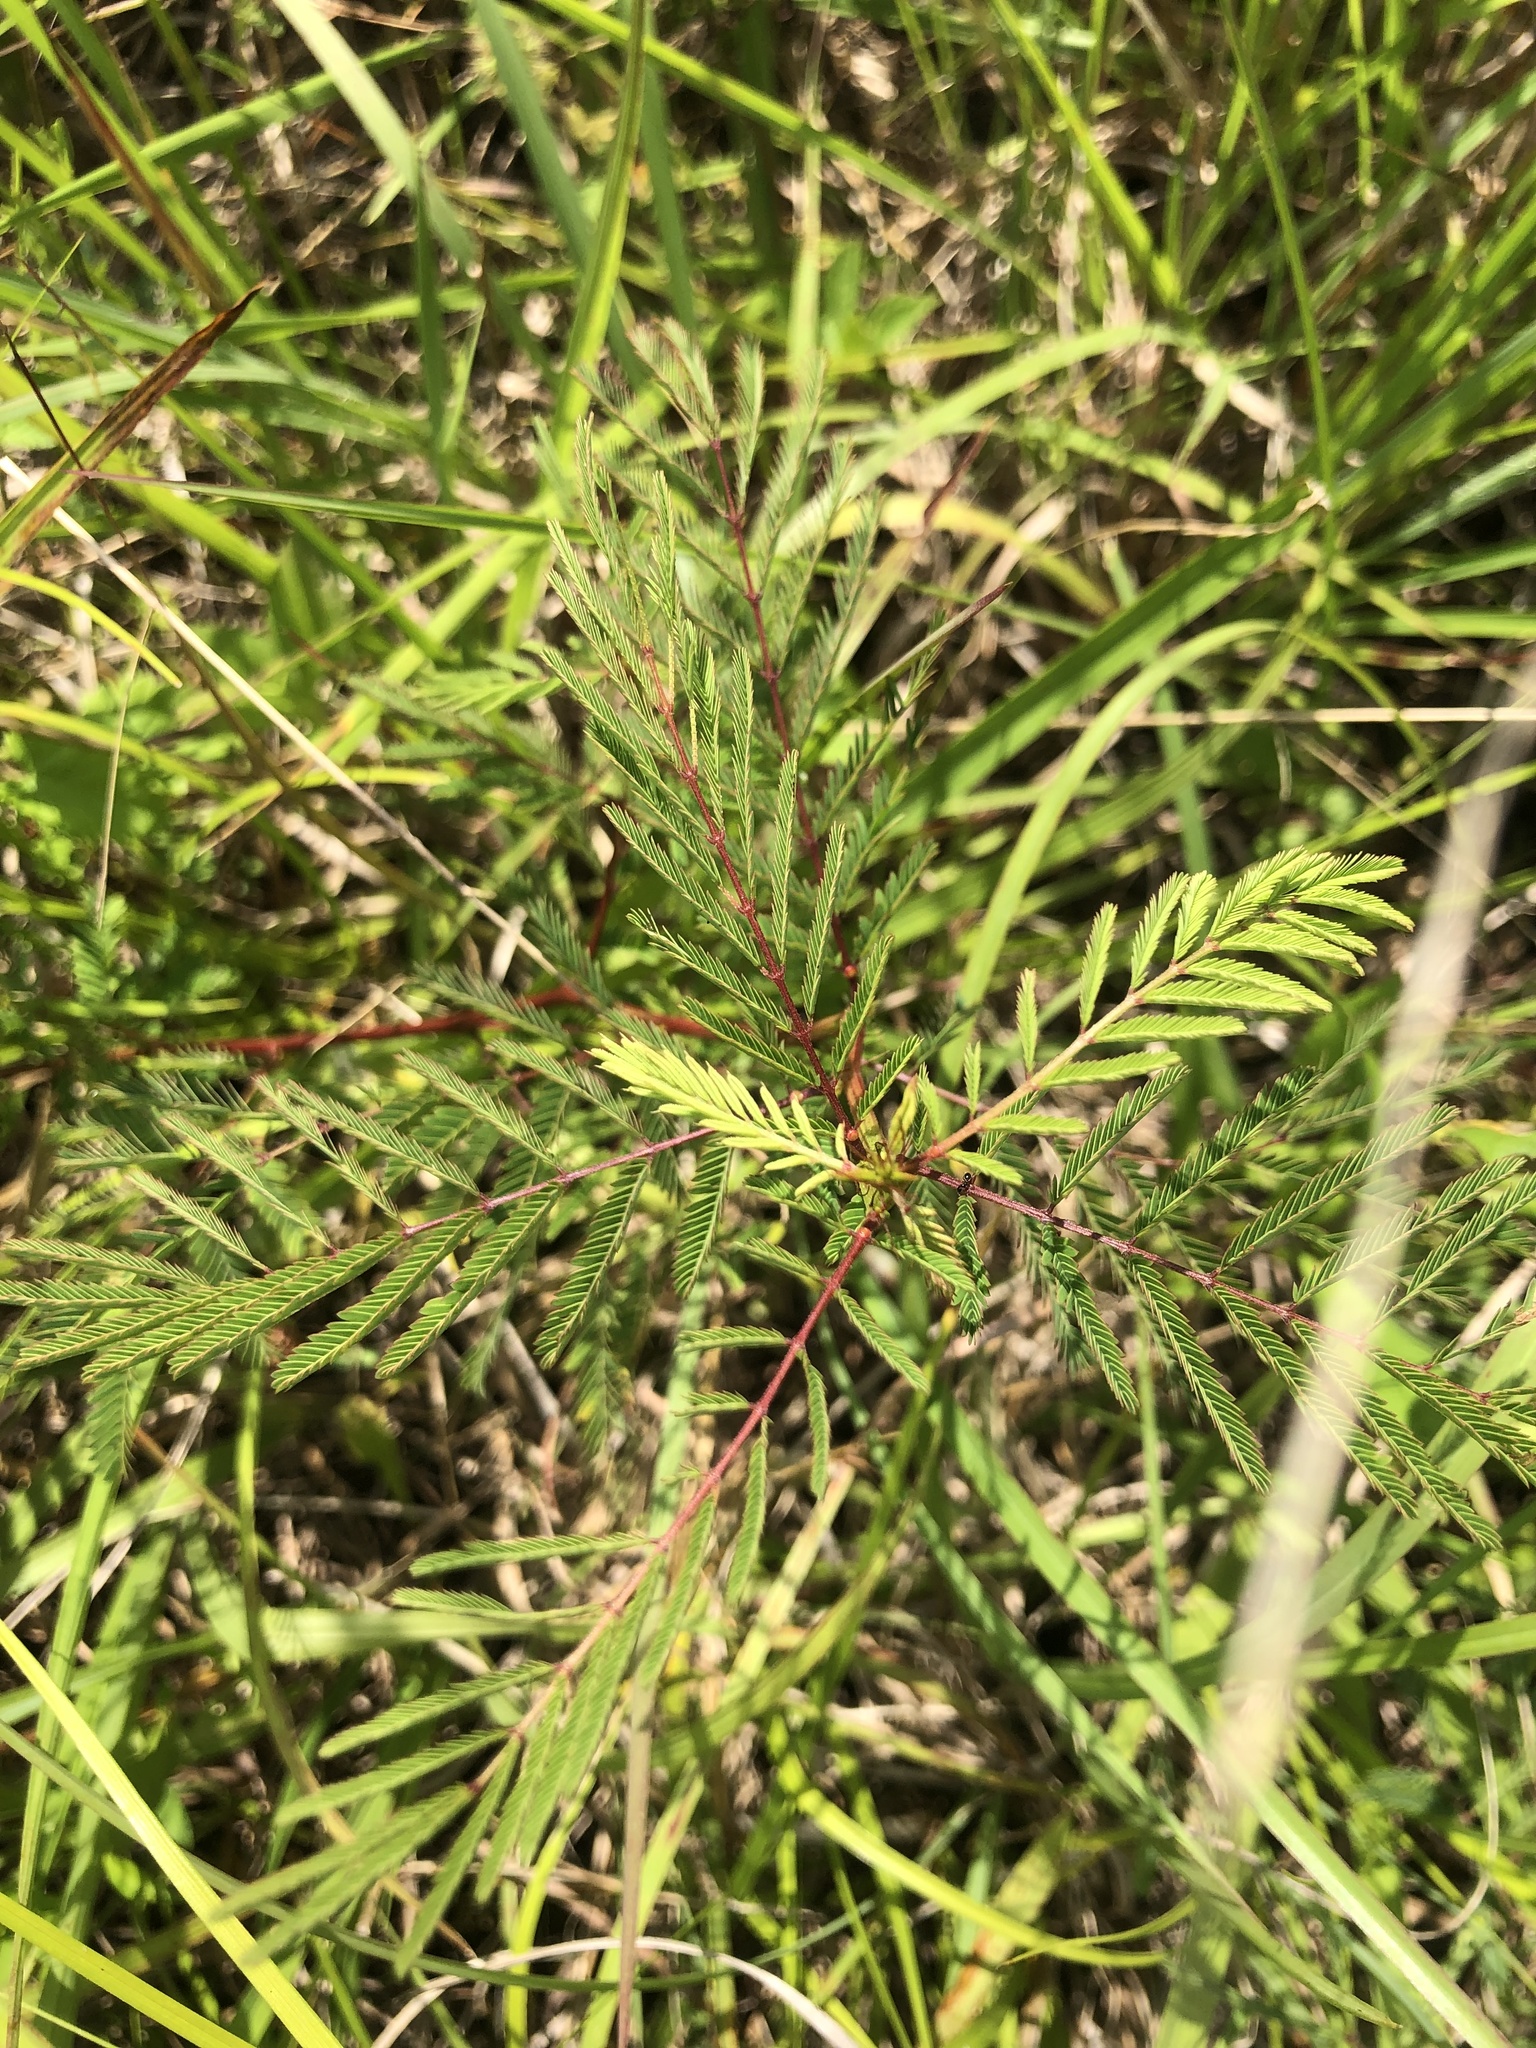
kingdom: Plantae
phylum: Tracheophyta
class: Magnoliopsida
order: Fabales
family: Fabaceae
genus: Desmanthus
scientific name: Desmanthus illinoensis
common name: Illinois bundle-flower
